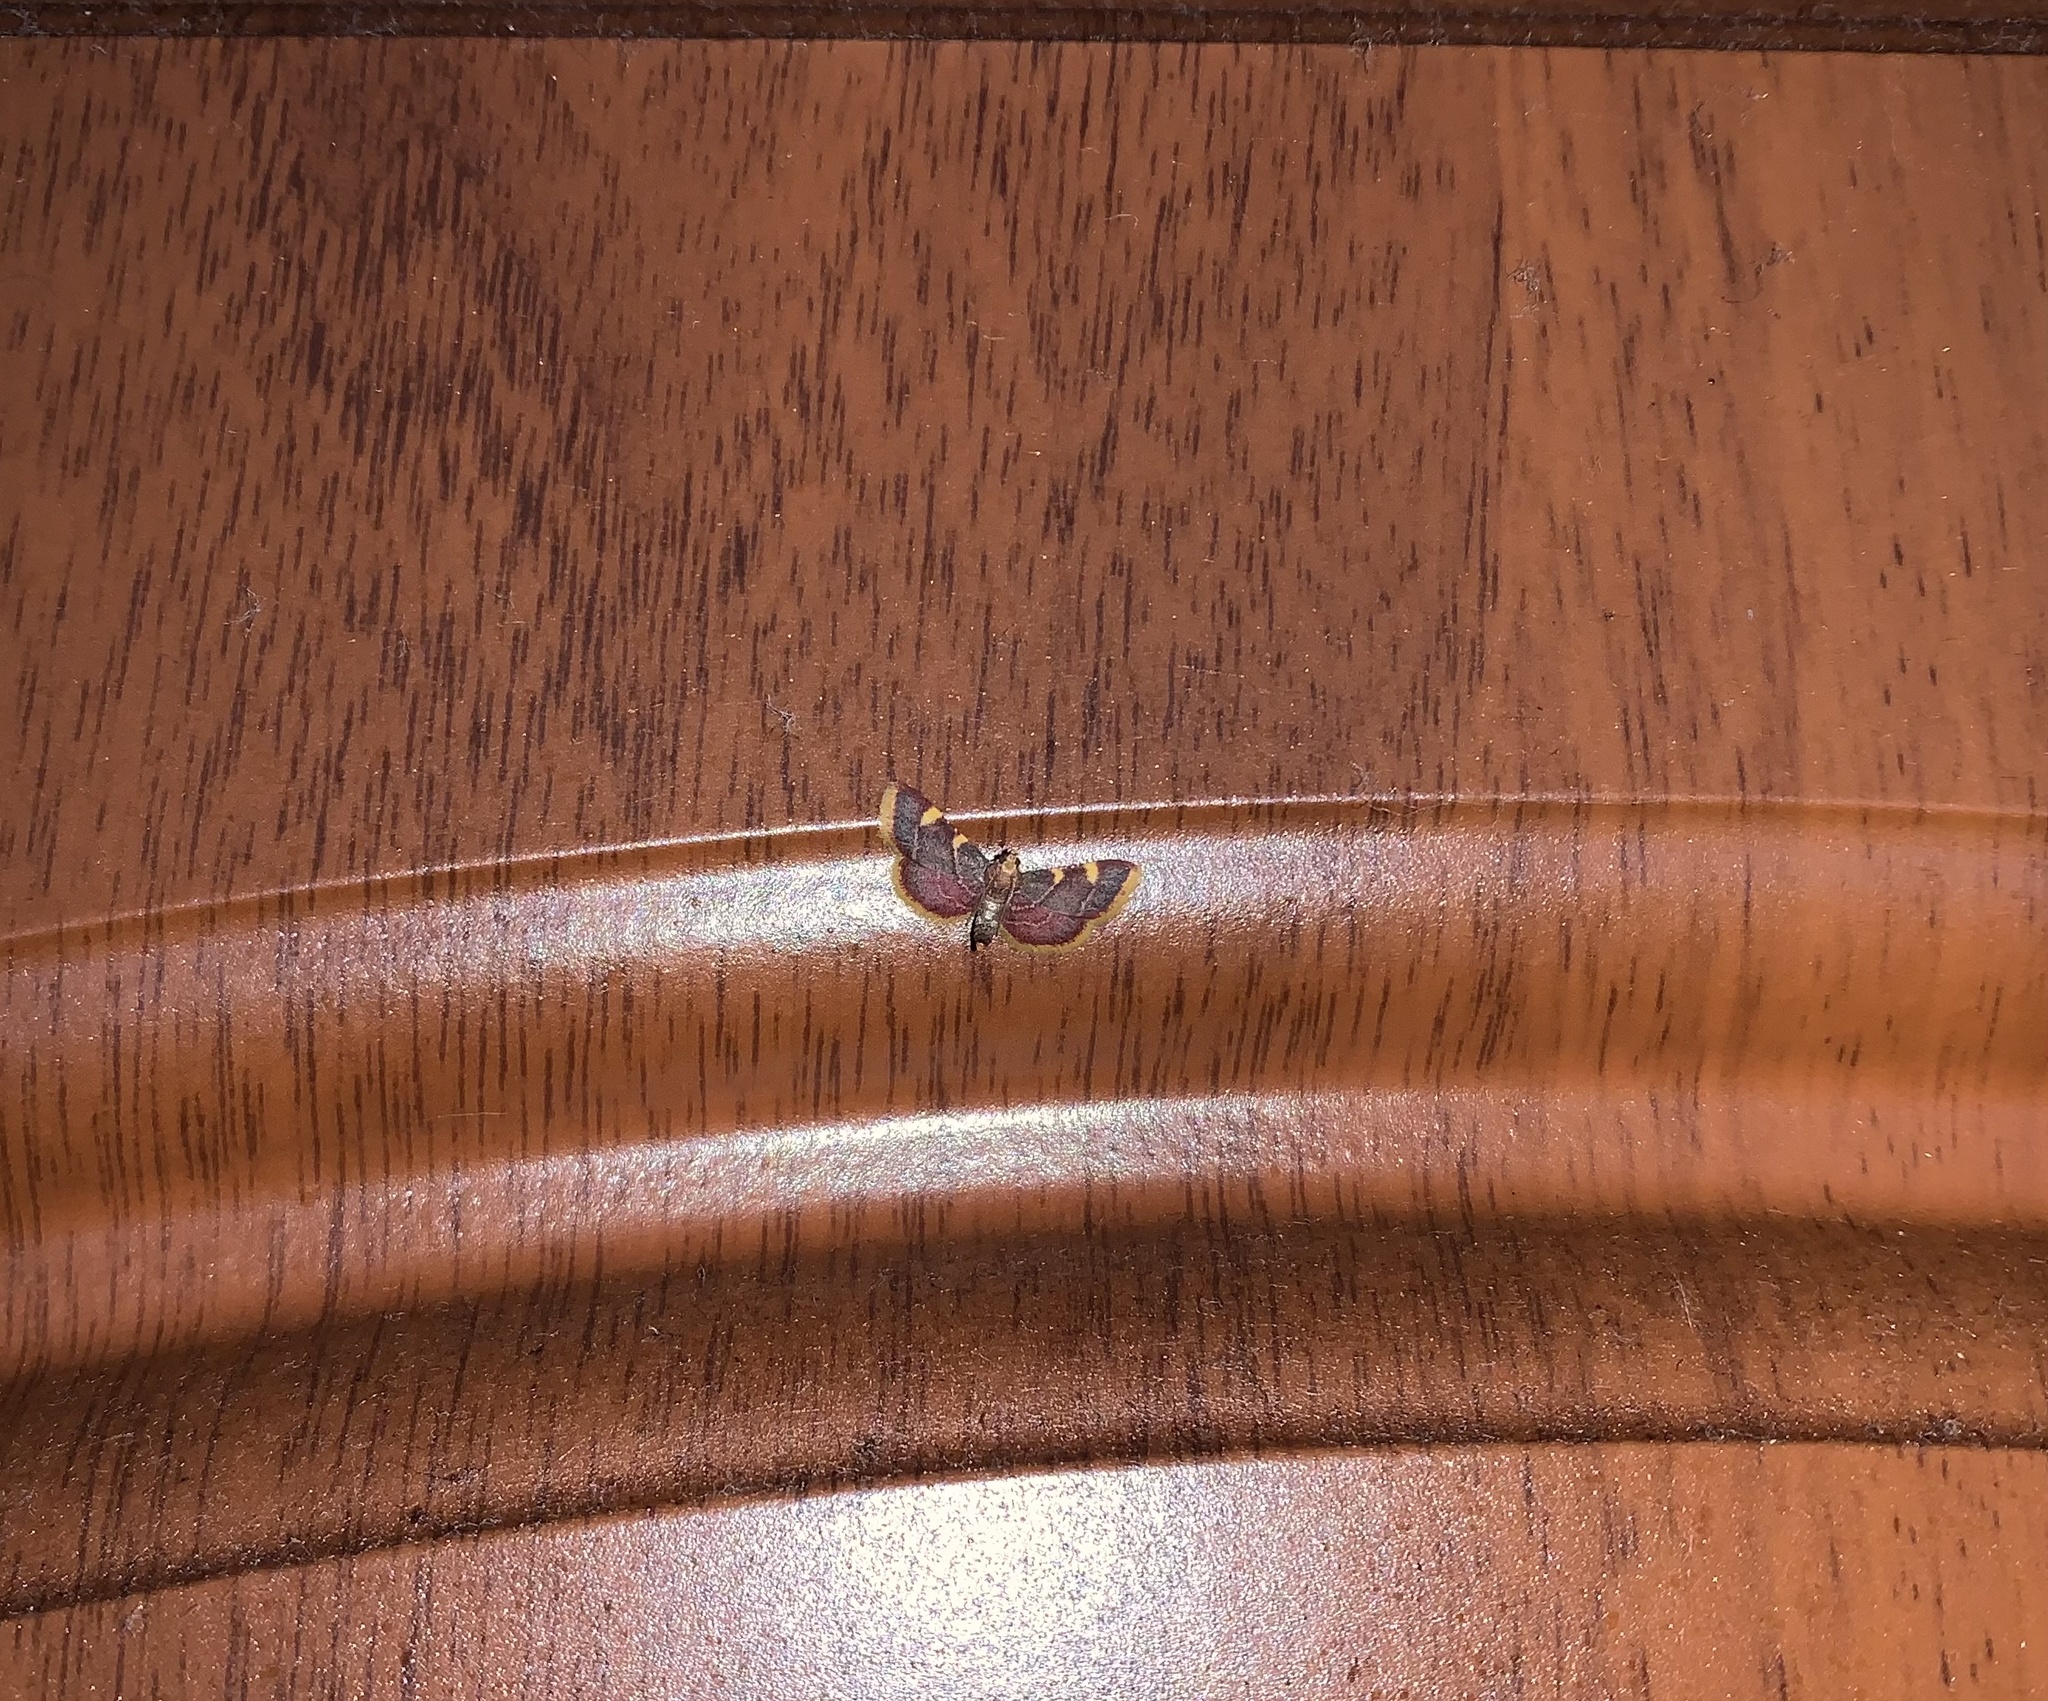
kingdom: Animalia
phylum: Arthropoda
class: Insecta
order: Lepidoptera
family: Pyralidae
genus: Hypsopygia
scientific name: Hypsopygia costalis
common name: Gold triangle
